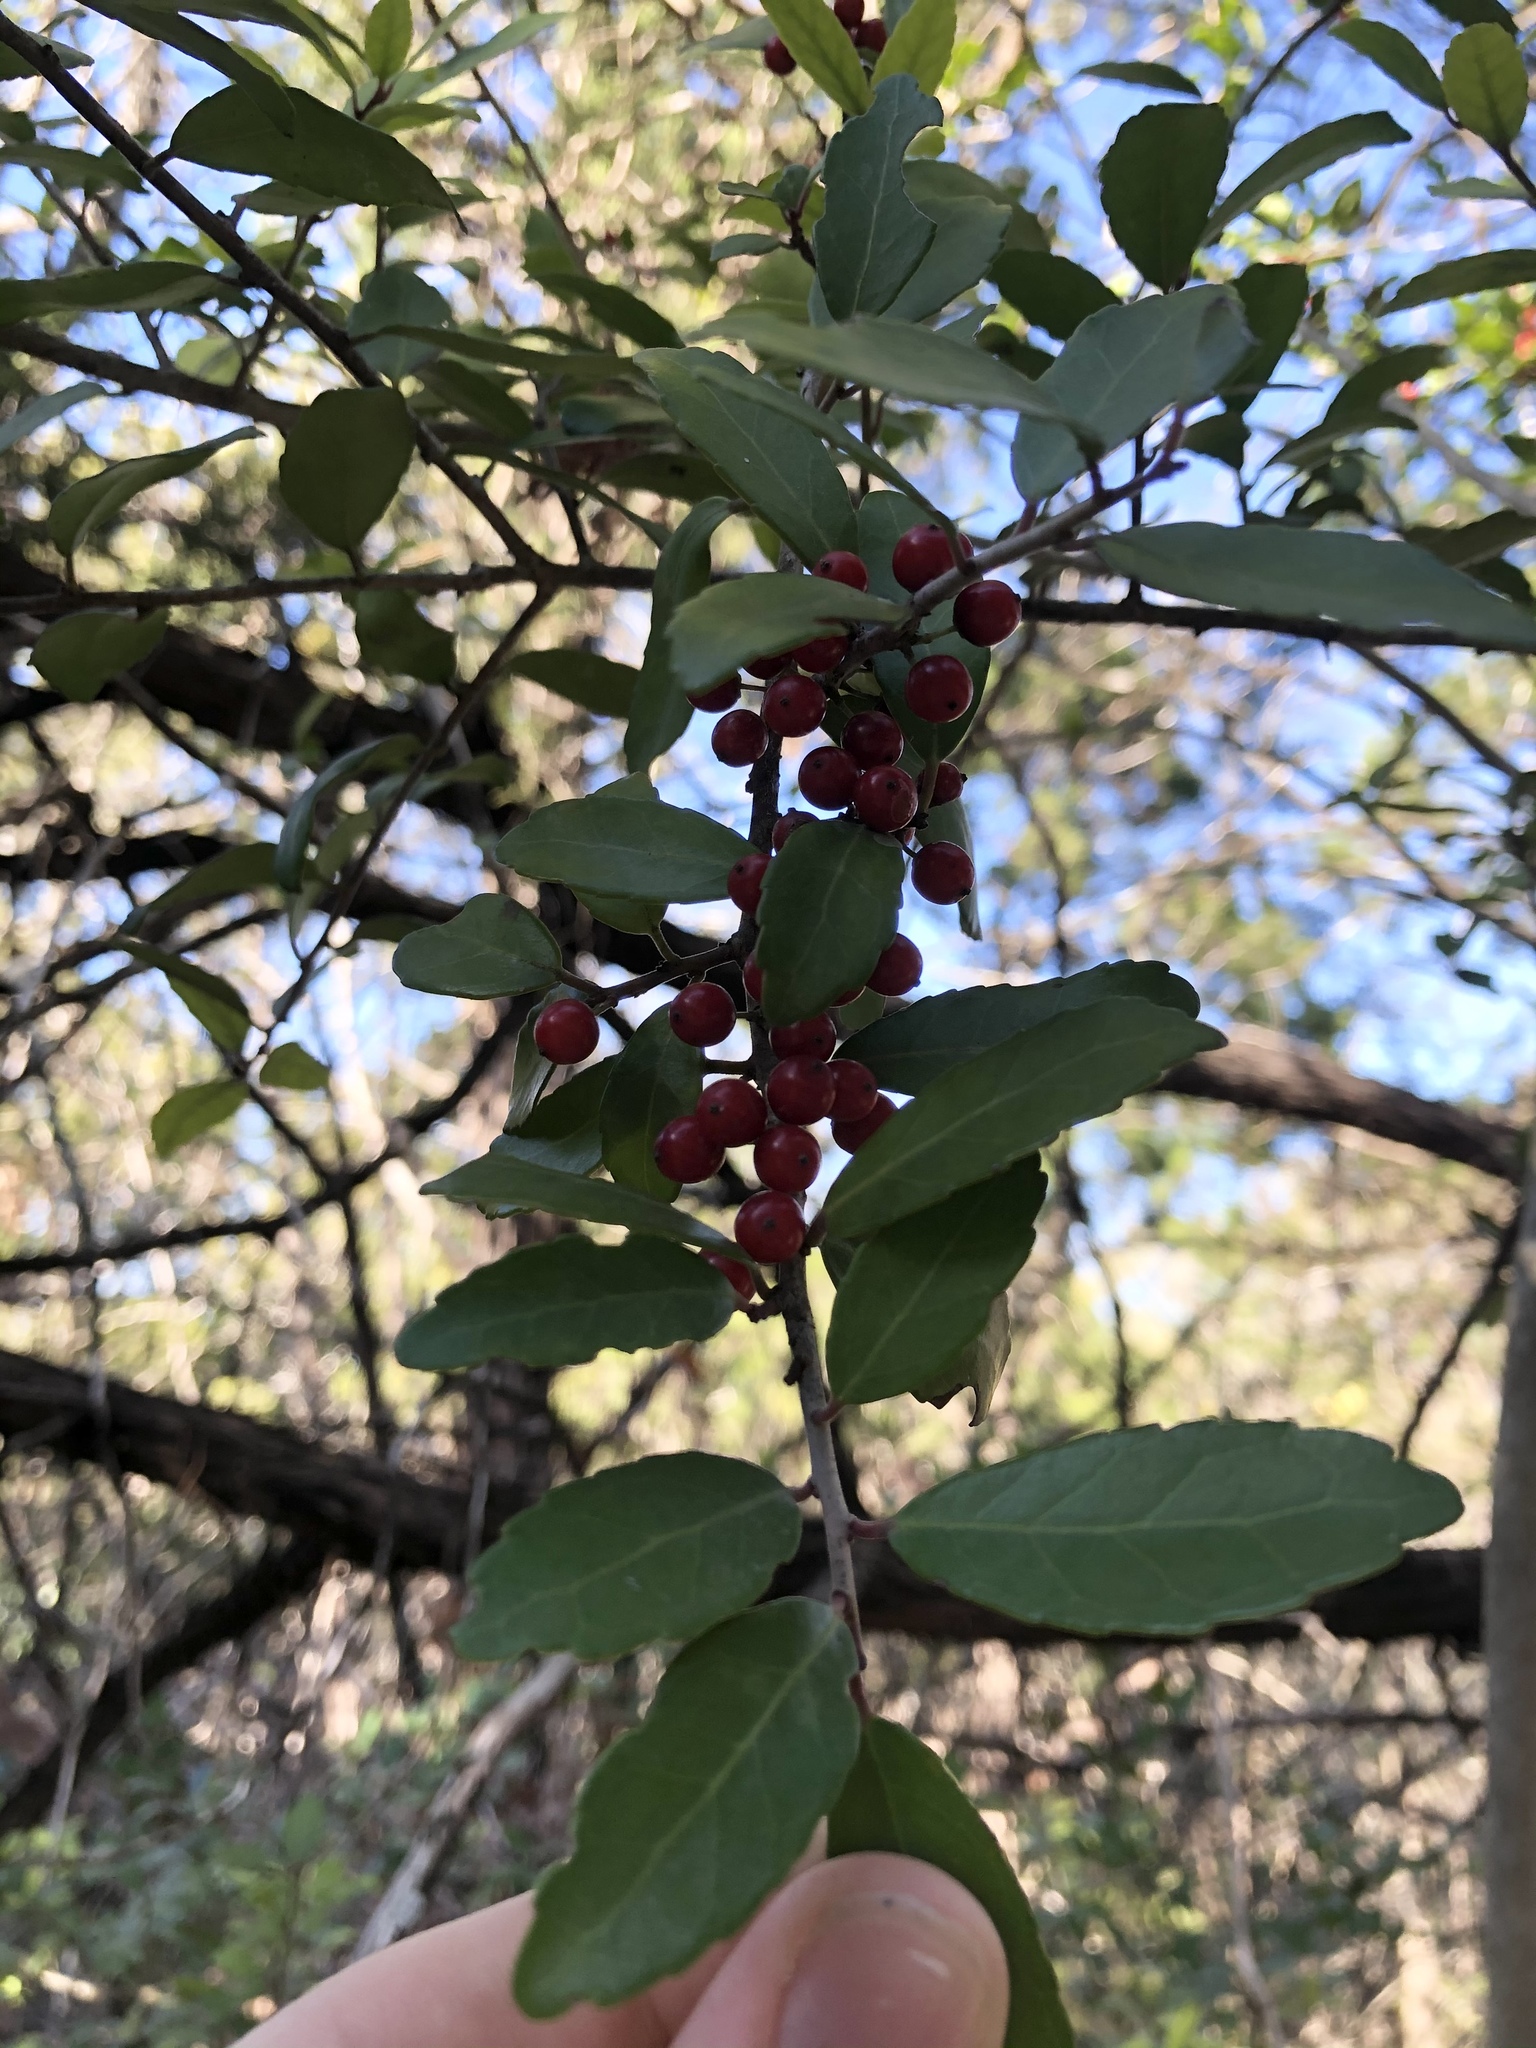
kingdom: Plantae
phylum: Tracheophyta
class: Magnoliopsida
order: Aquifoliales
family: Aquifoliaceae
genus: Ilex
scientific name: Ilex vomitoria
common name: Yaupon holly
